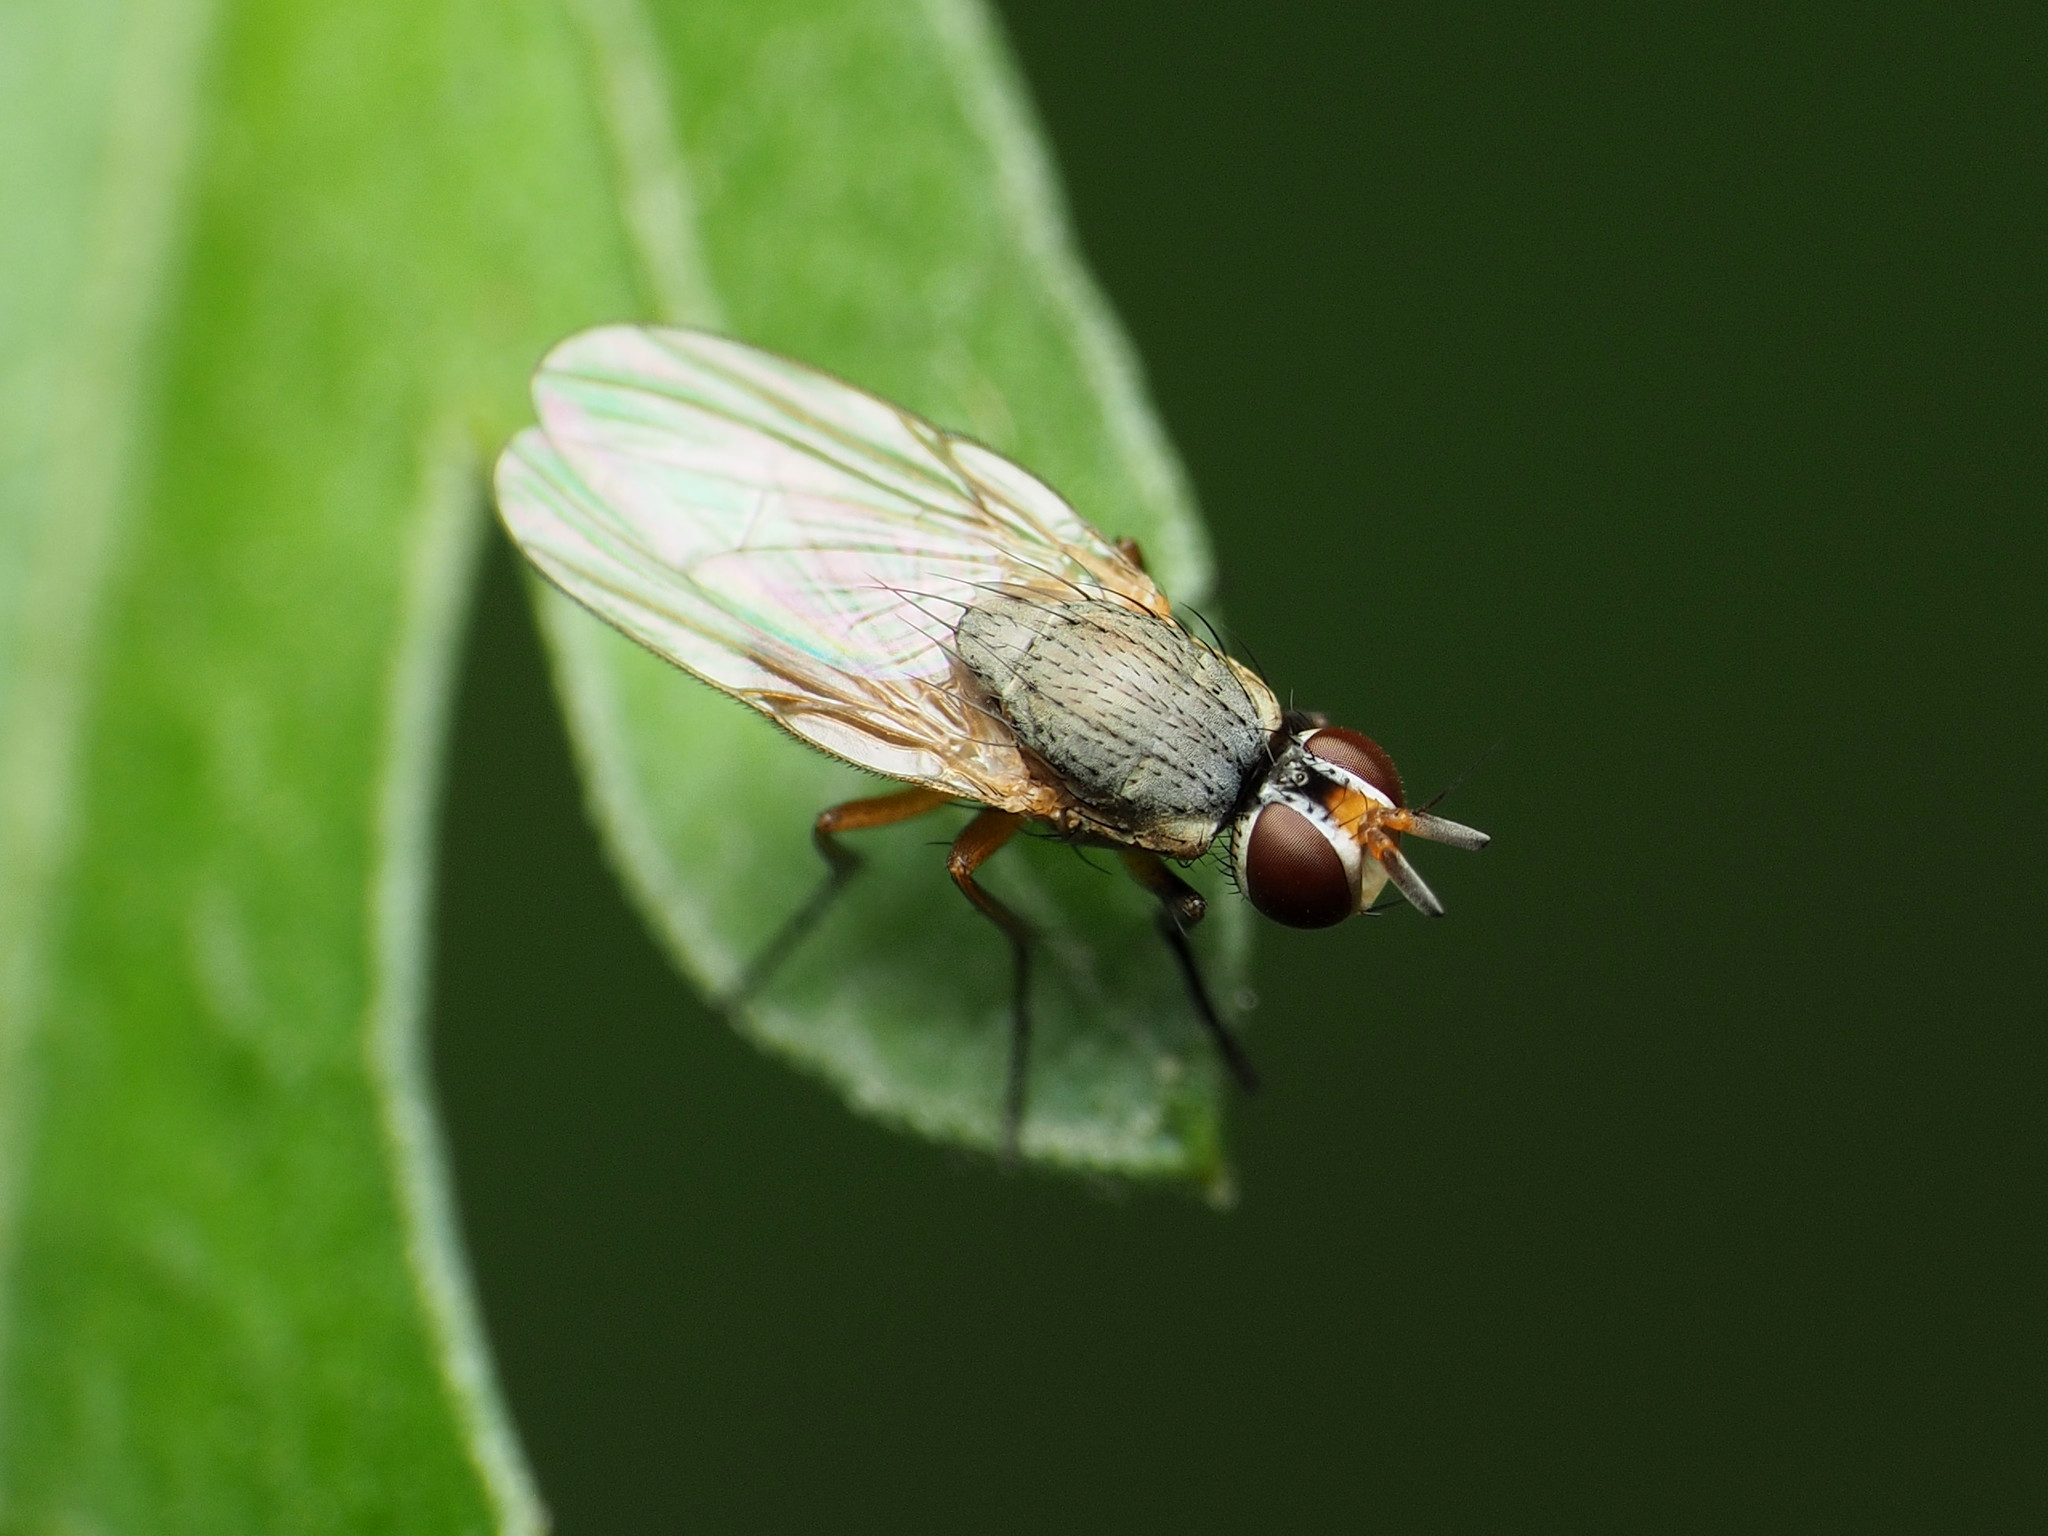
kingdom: Animalia
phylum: Arthropoda
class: Insecta
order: Diptera
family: Muscidae
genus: Atherigona
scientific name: Atherigona reversura
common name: Bermudagrass stem maggot
